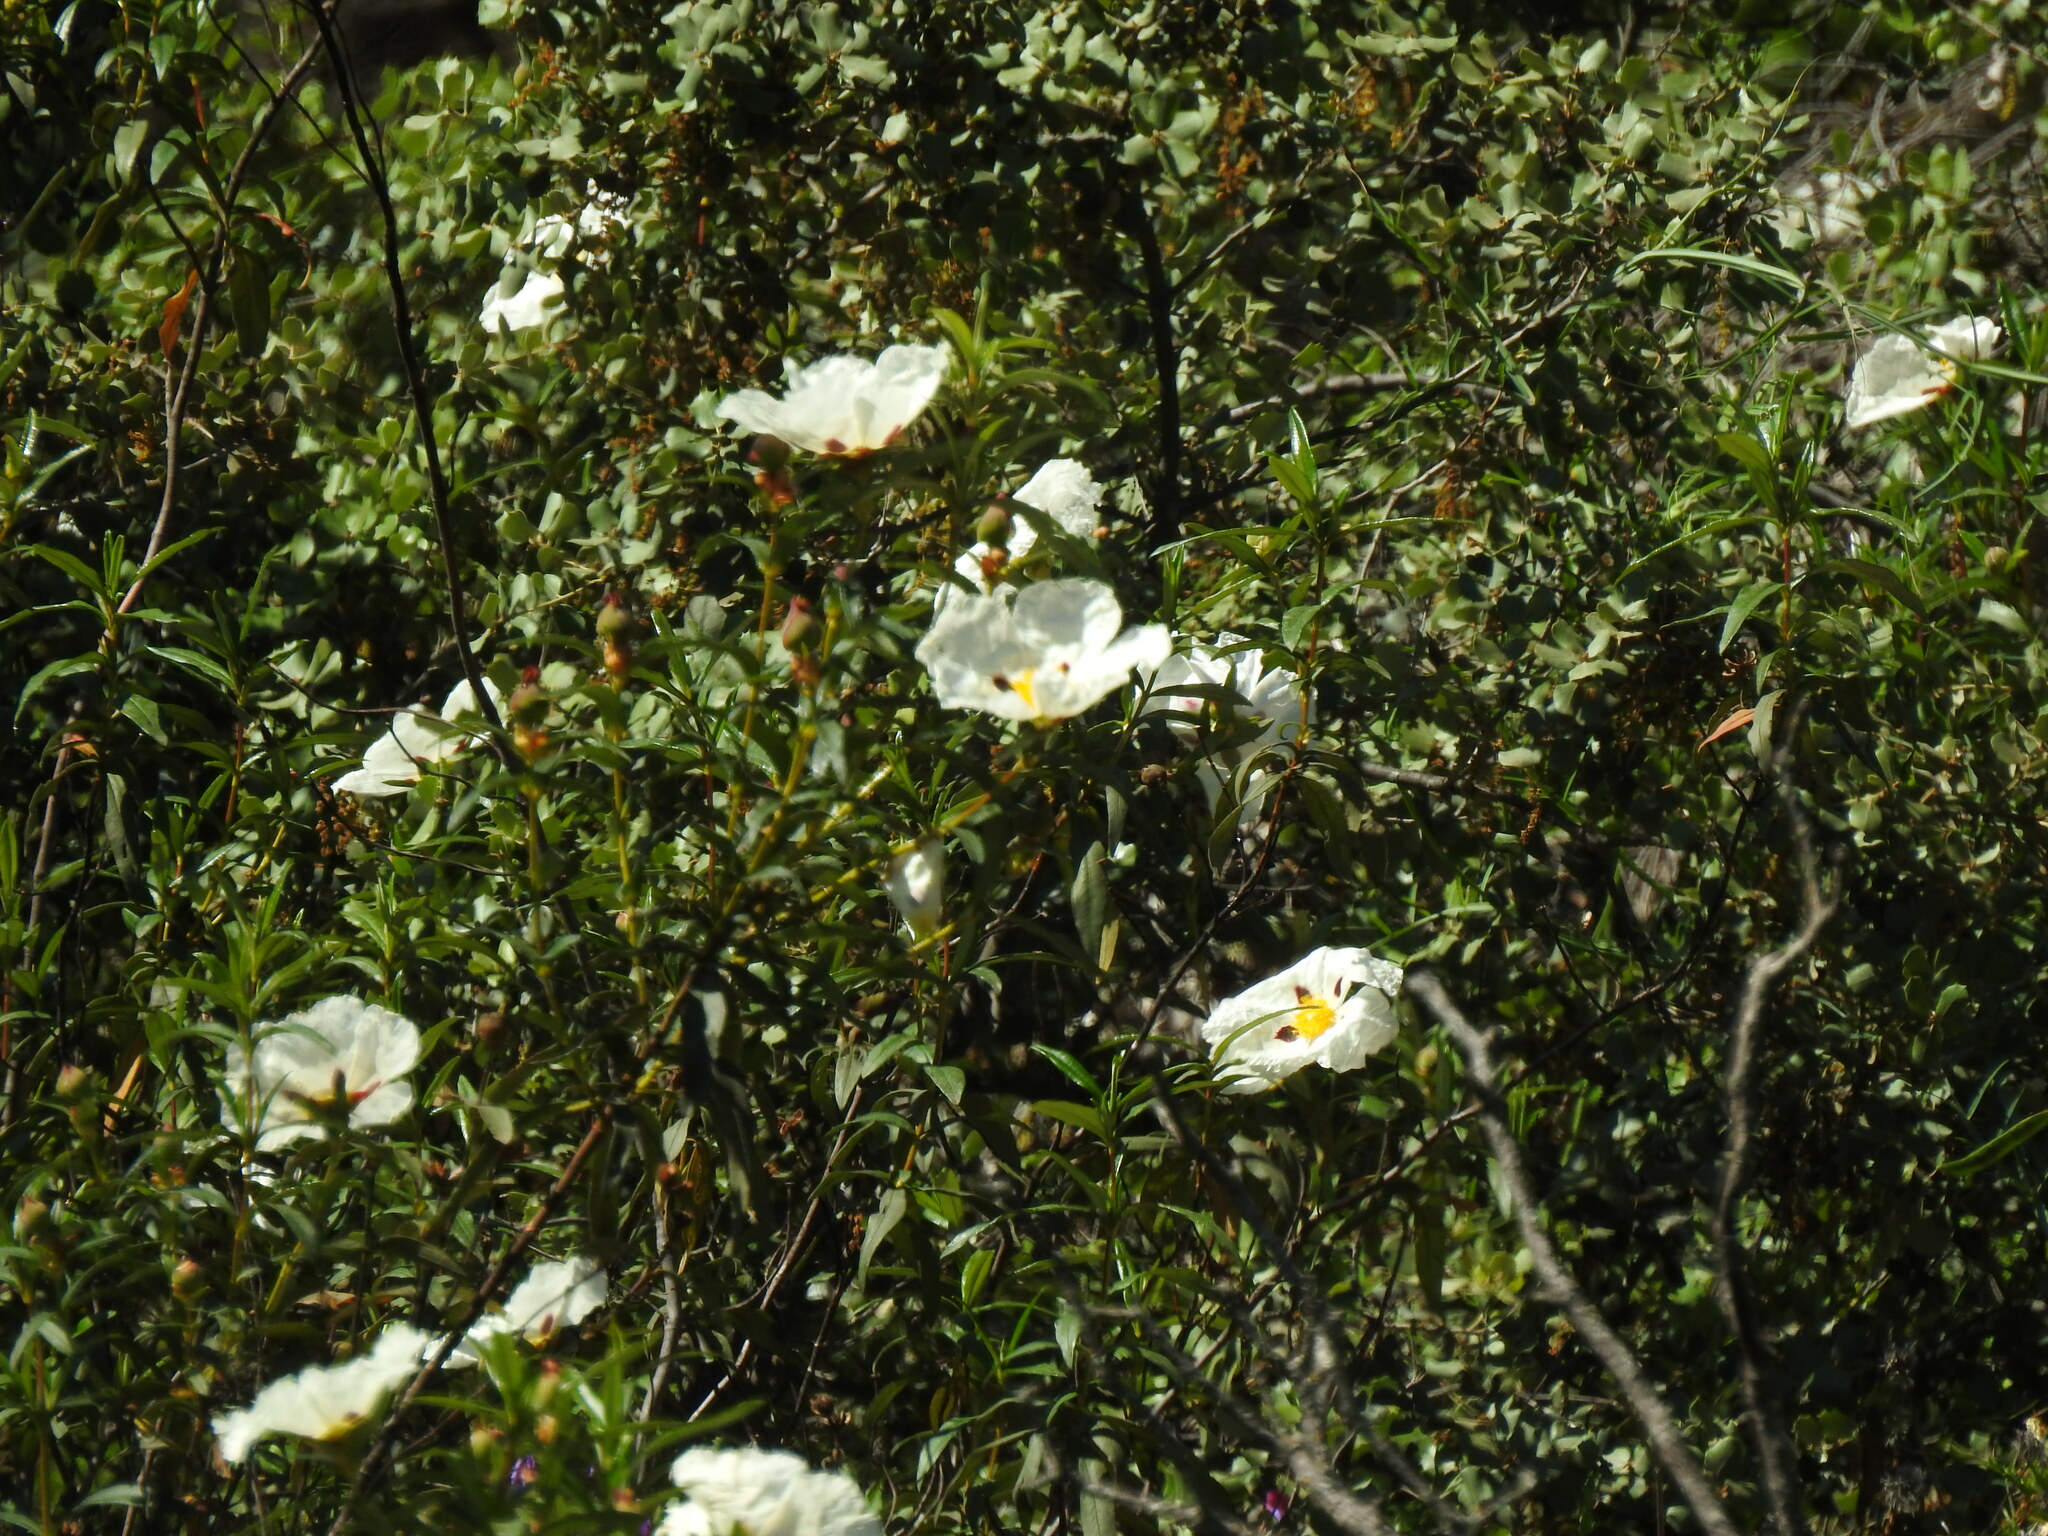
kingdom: Plantae
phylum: Tracheophyta
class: Magnoliopsida
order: Malvales
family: Cistaceae
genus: Cistus
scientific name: Cistus ladanifer
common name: Common gum cistus
